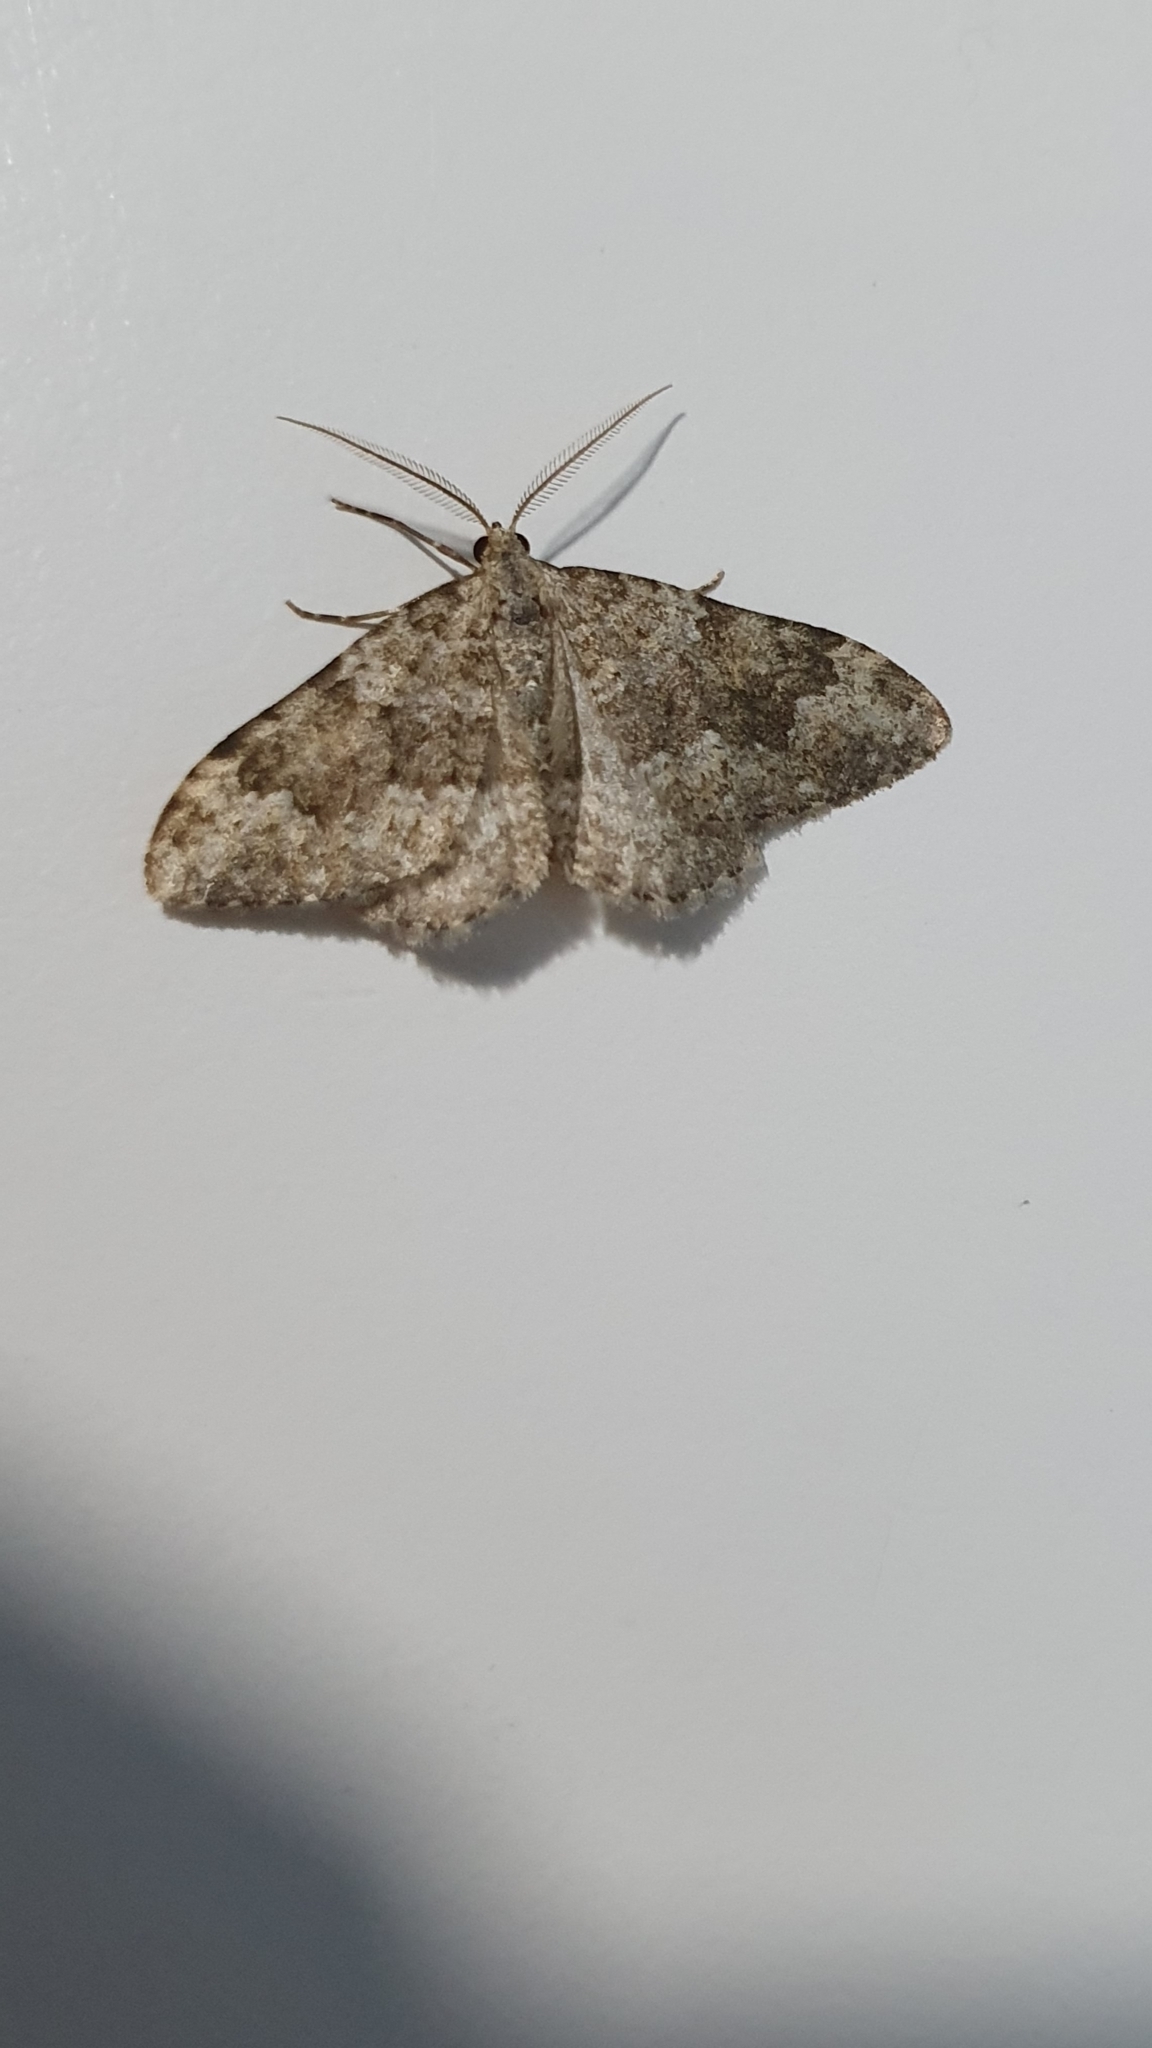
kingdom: Animalia
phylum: Arthropoda
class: Insecta
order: Lepidoptera
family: Geometridae
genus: Nebula
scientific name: Nebula salicata
